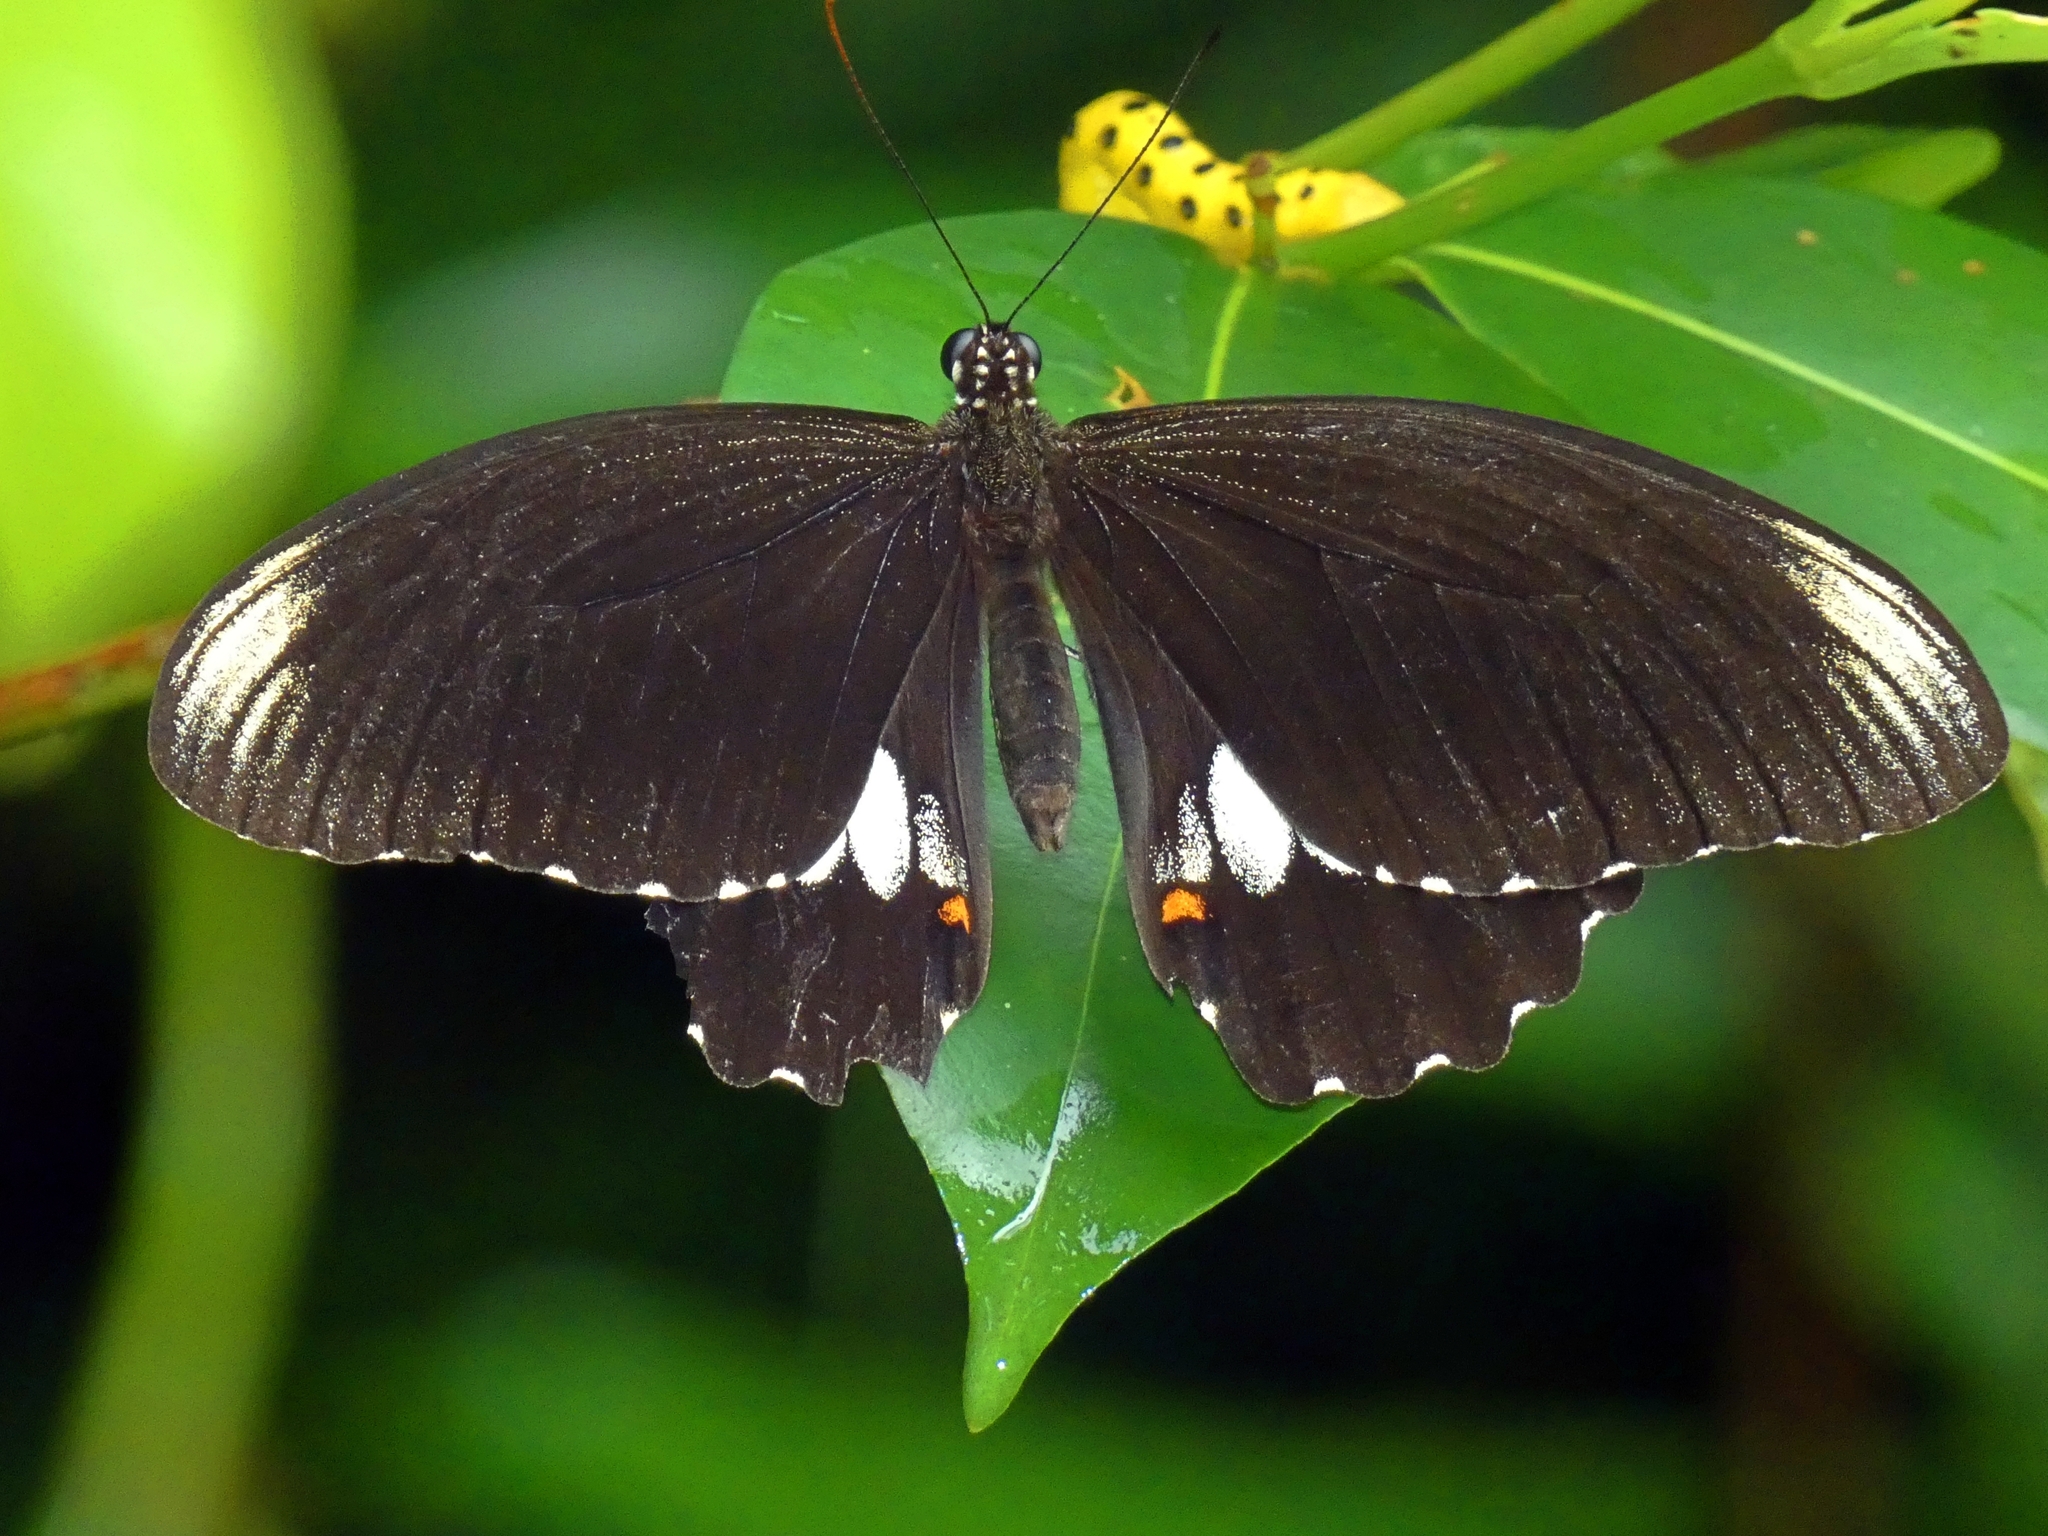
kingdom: Animalia
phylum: Arthropoda
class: Insecta
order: Lepidoptera
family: Papilionidae
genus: Papilio
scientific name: Papilio ambrax
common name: Ambrax butterfly
